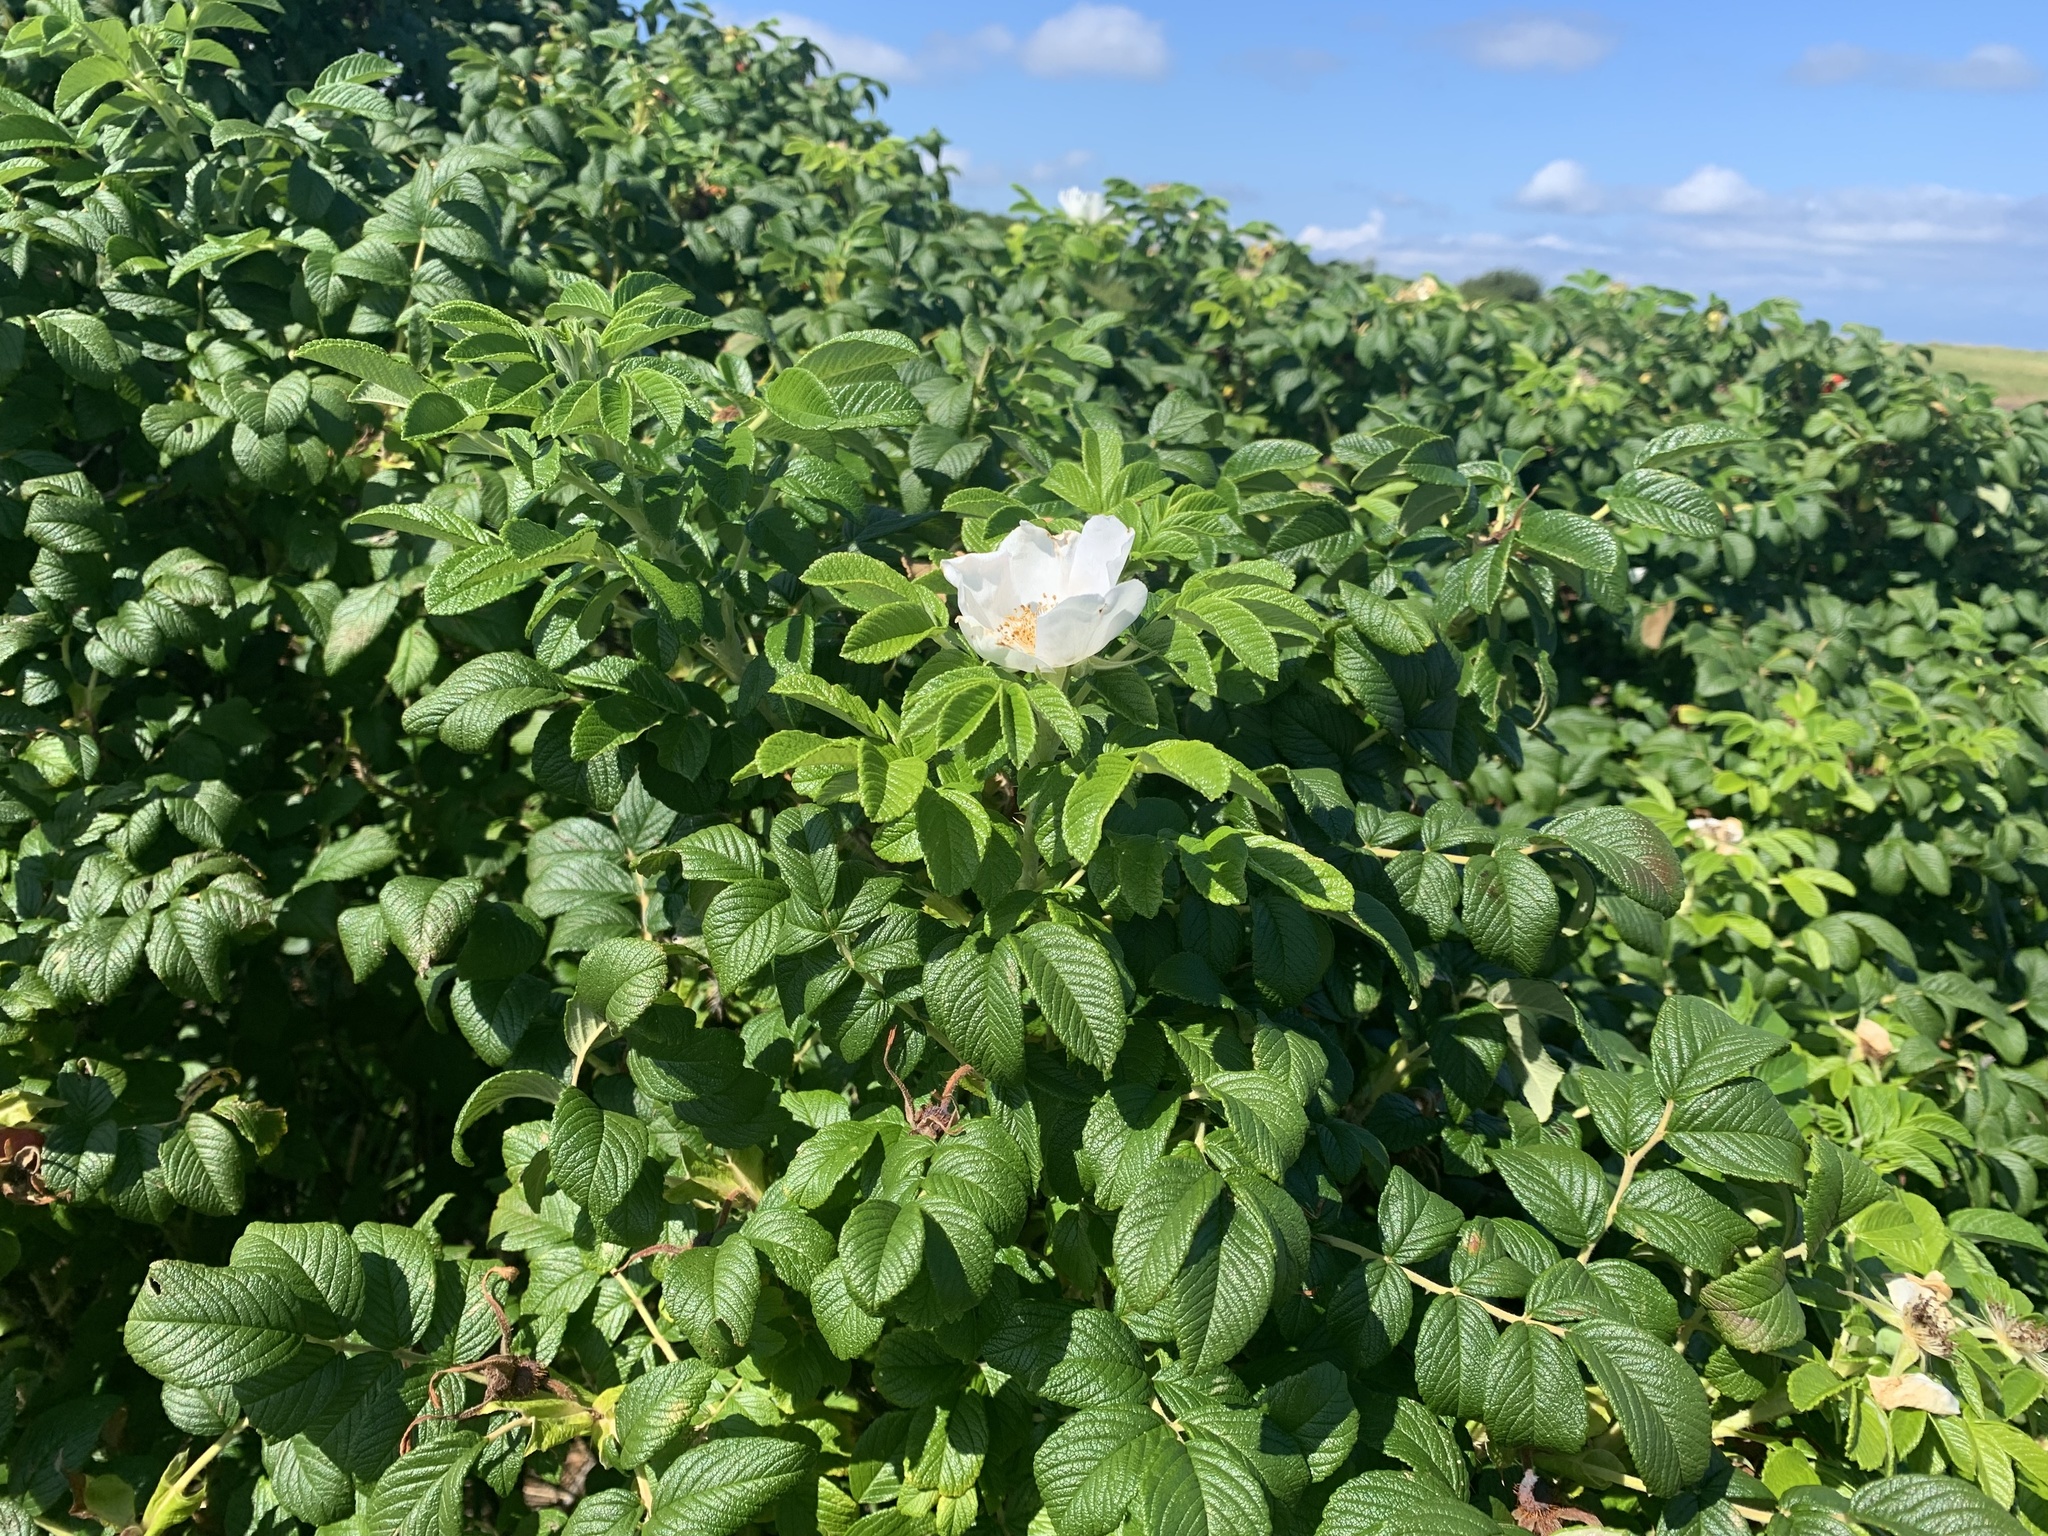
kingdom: Plantae
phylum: Tracheophyta
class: Magnoliopsida
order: Rosales
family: Rosaceae
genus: Rosa
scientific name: Rosa rugosa
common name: Japanese rose
